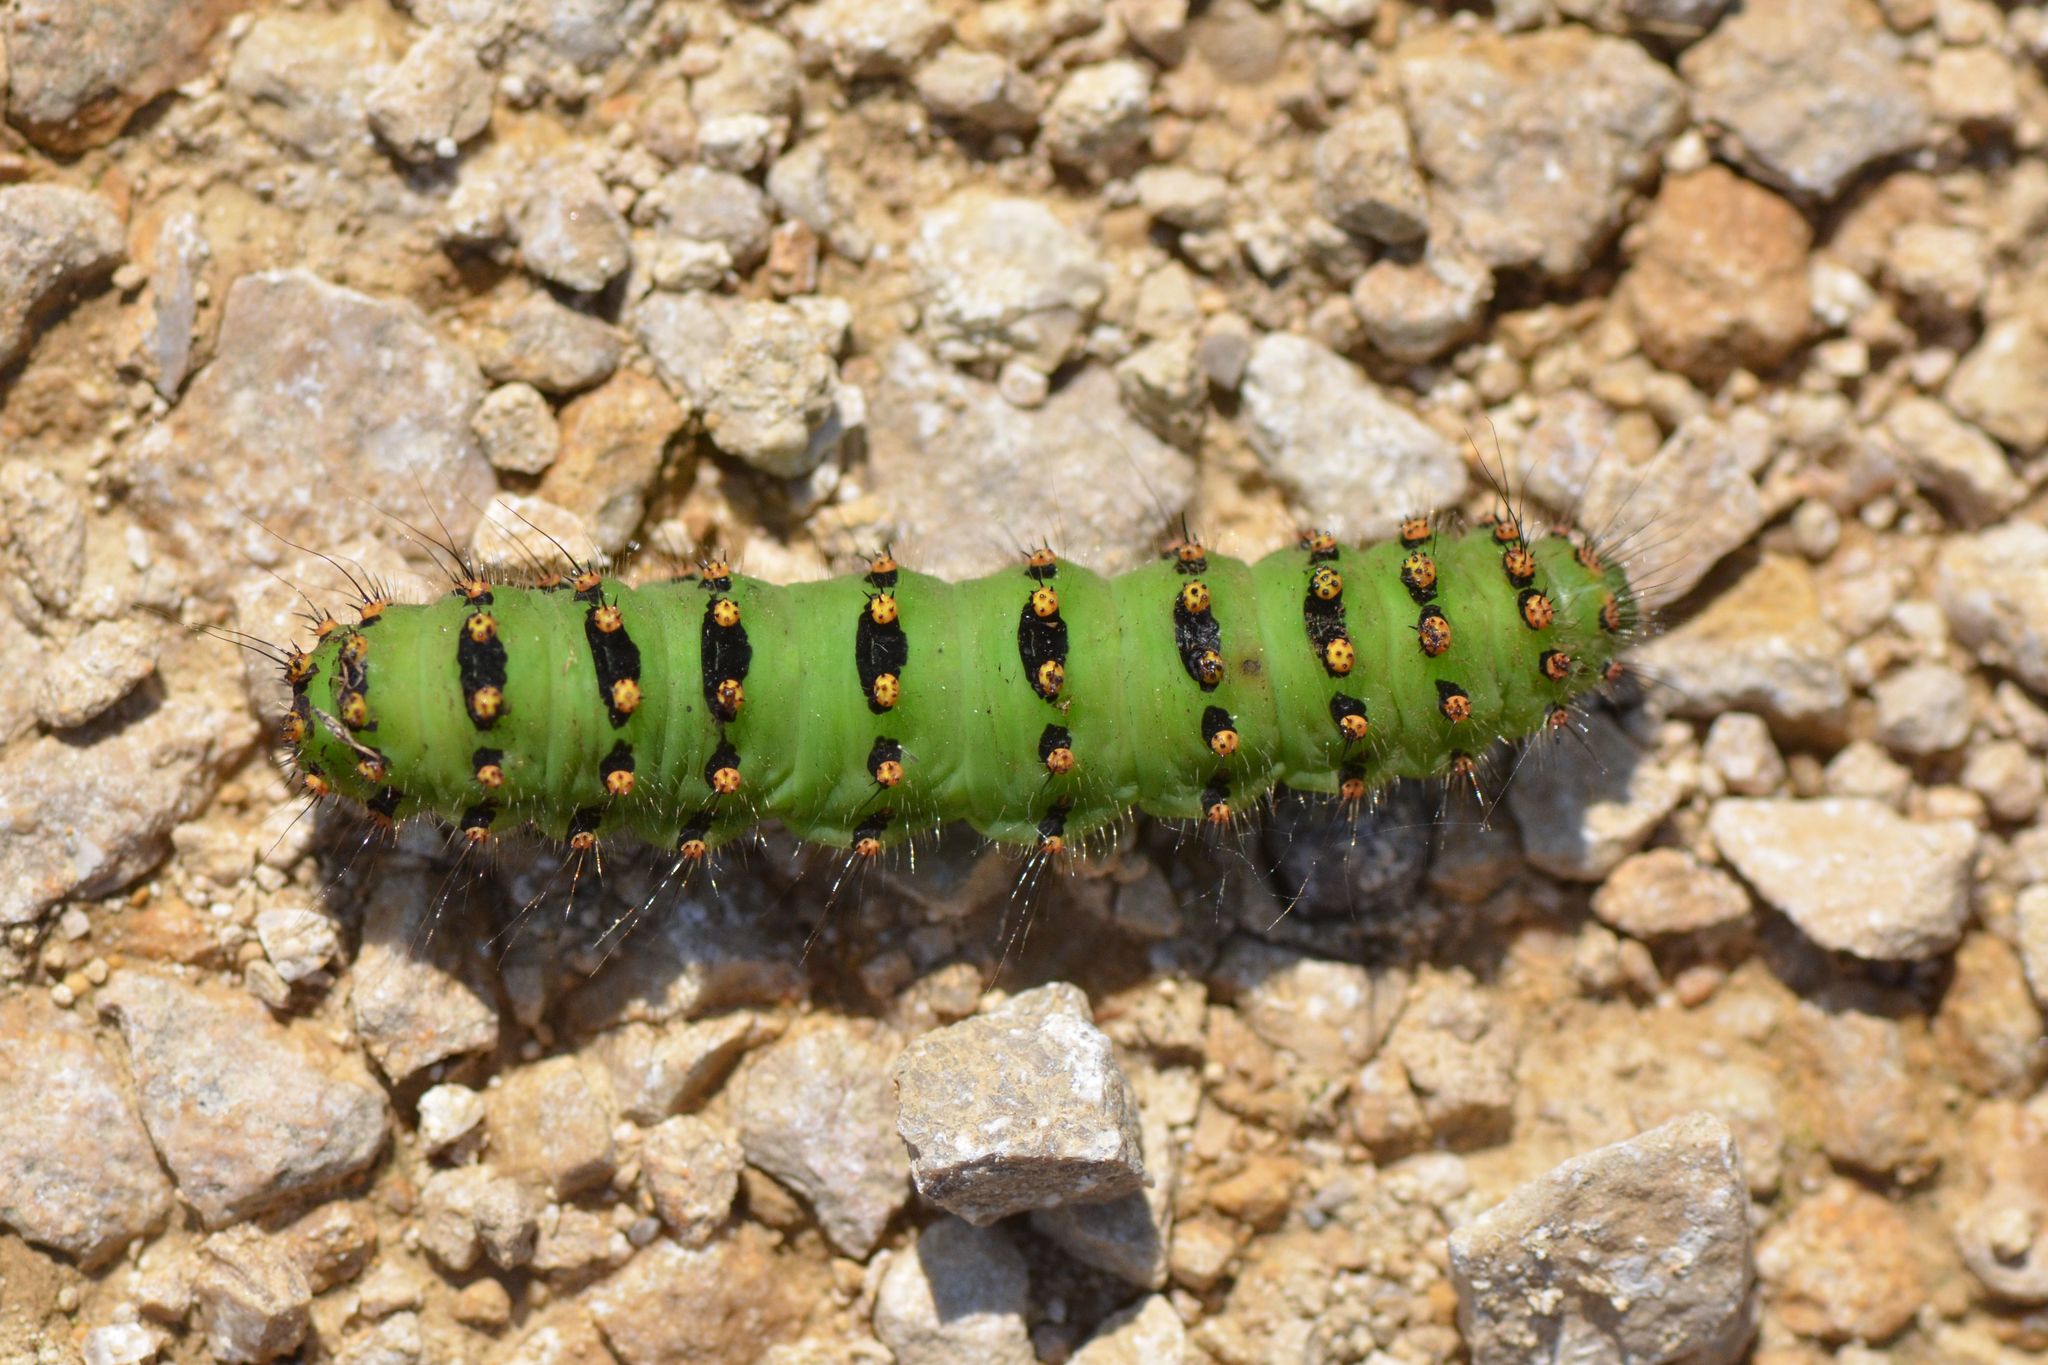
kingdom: Animalia
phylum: Arthropoda
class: Insecta
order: Lepidoptera
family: Saturniidae
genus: Saturnia
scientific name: Saturnia pavonia
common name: Emperor moth
